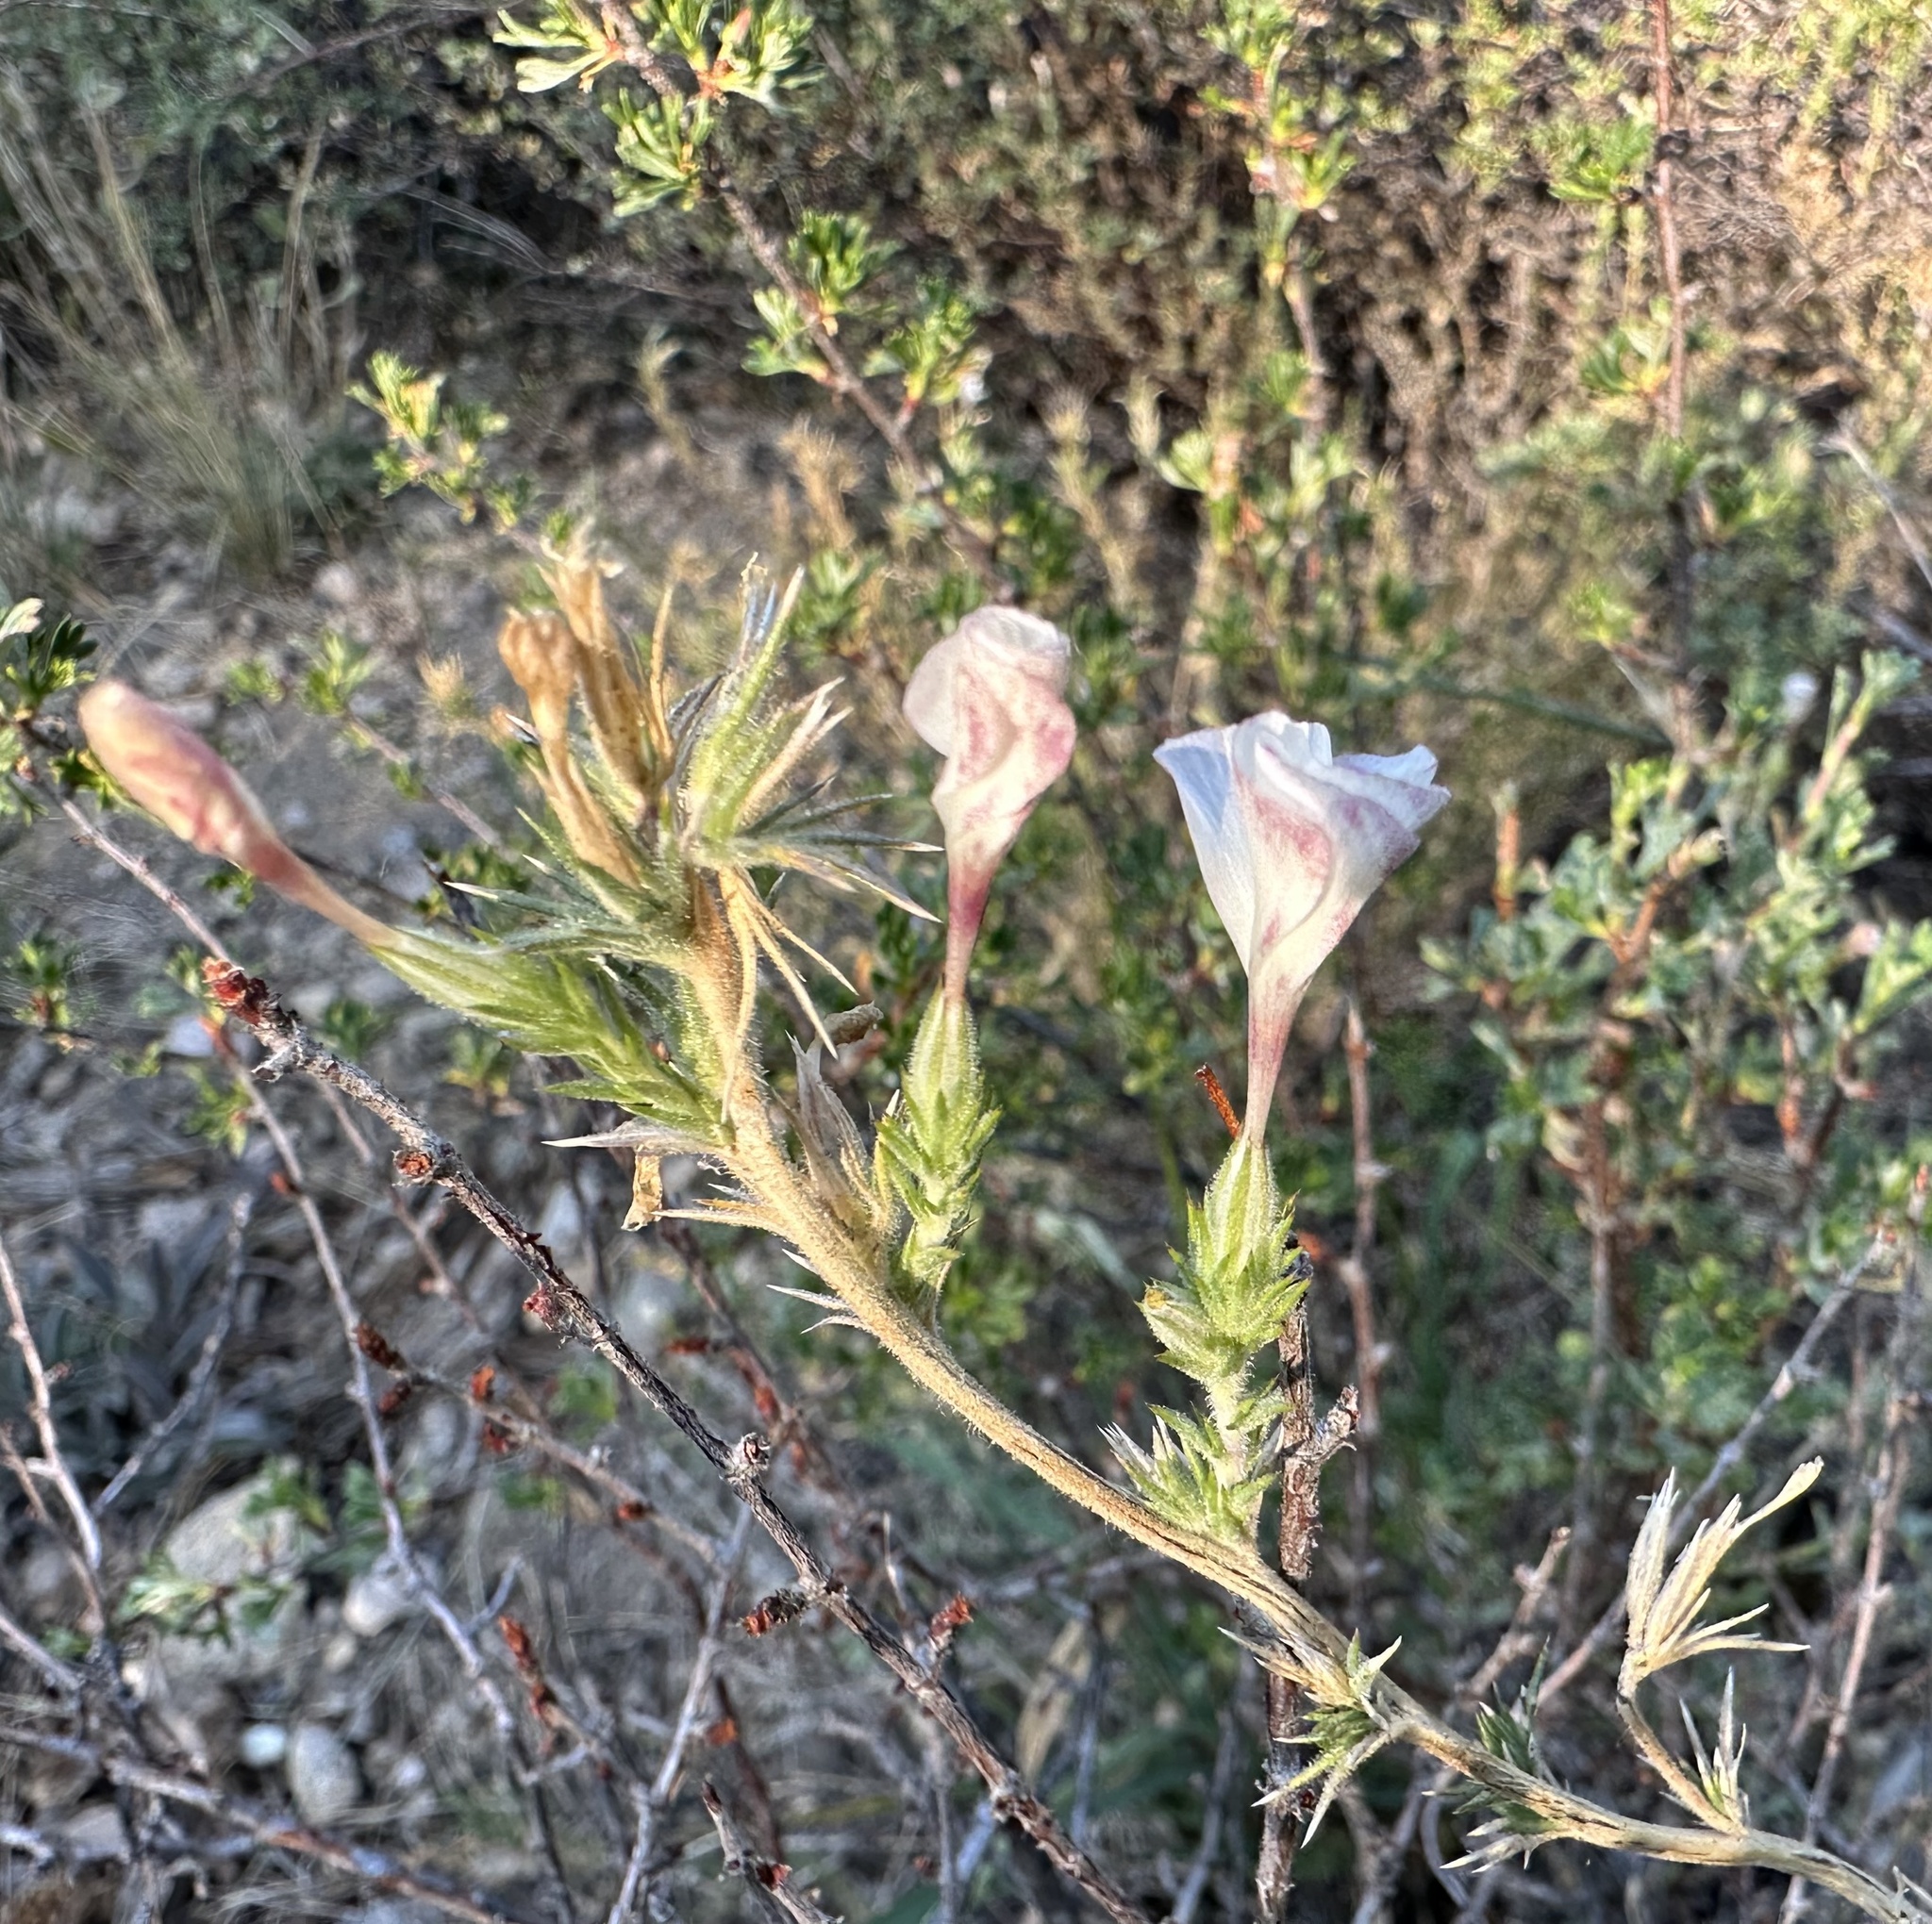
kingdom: Plantae
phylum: Tracheophyta
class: Magnoliopsida
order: Ericales
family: Polemoniaceae
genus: Linanthus
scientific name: Linanthus pungens
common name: Granite prickly phlox
